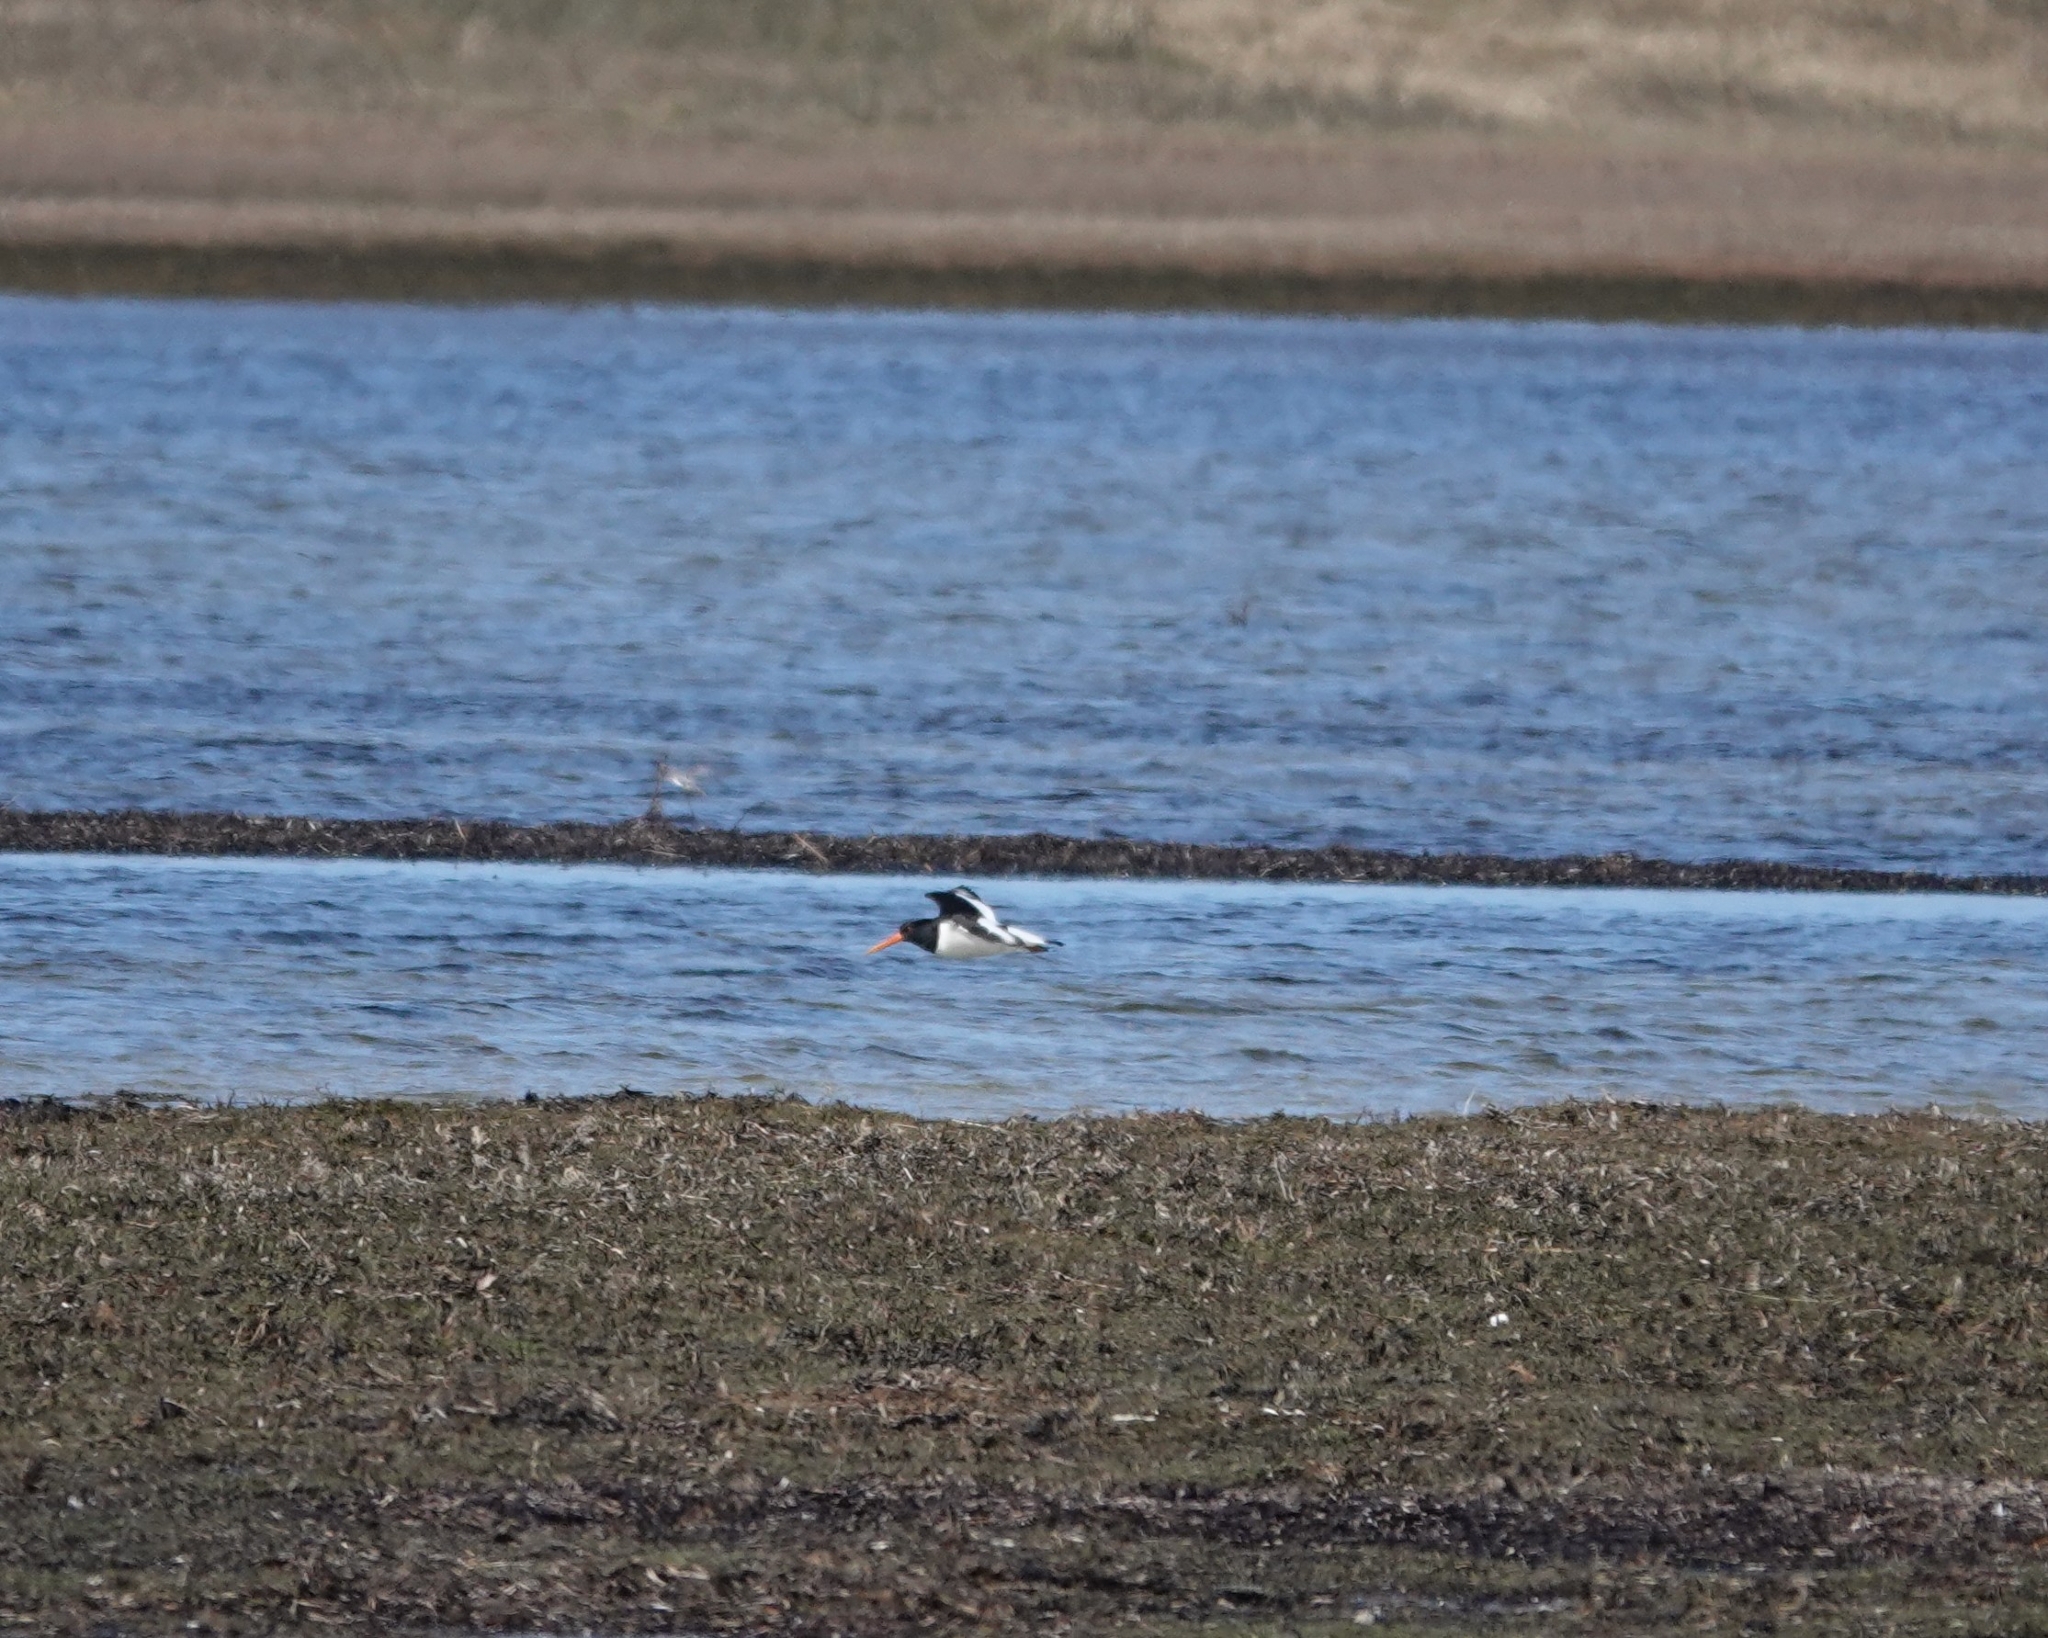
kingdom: Animalia
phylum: Chordata
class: Aves
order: Charadriiformes
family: Haematopodidae
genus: Haematopus
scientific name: Haematopus ostralegus
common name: Eurasian oystercatcher
